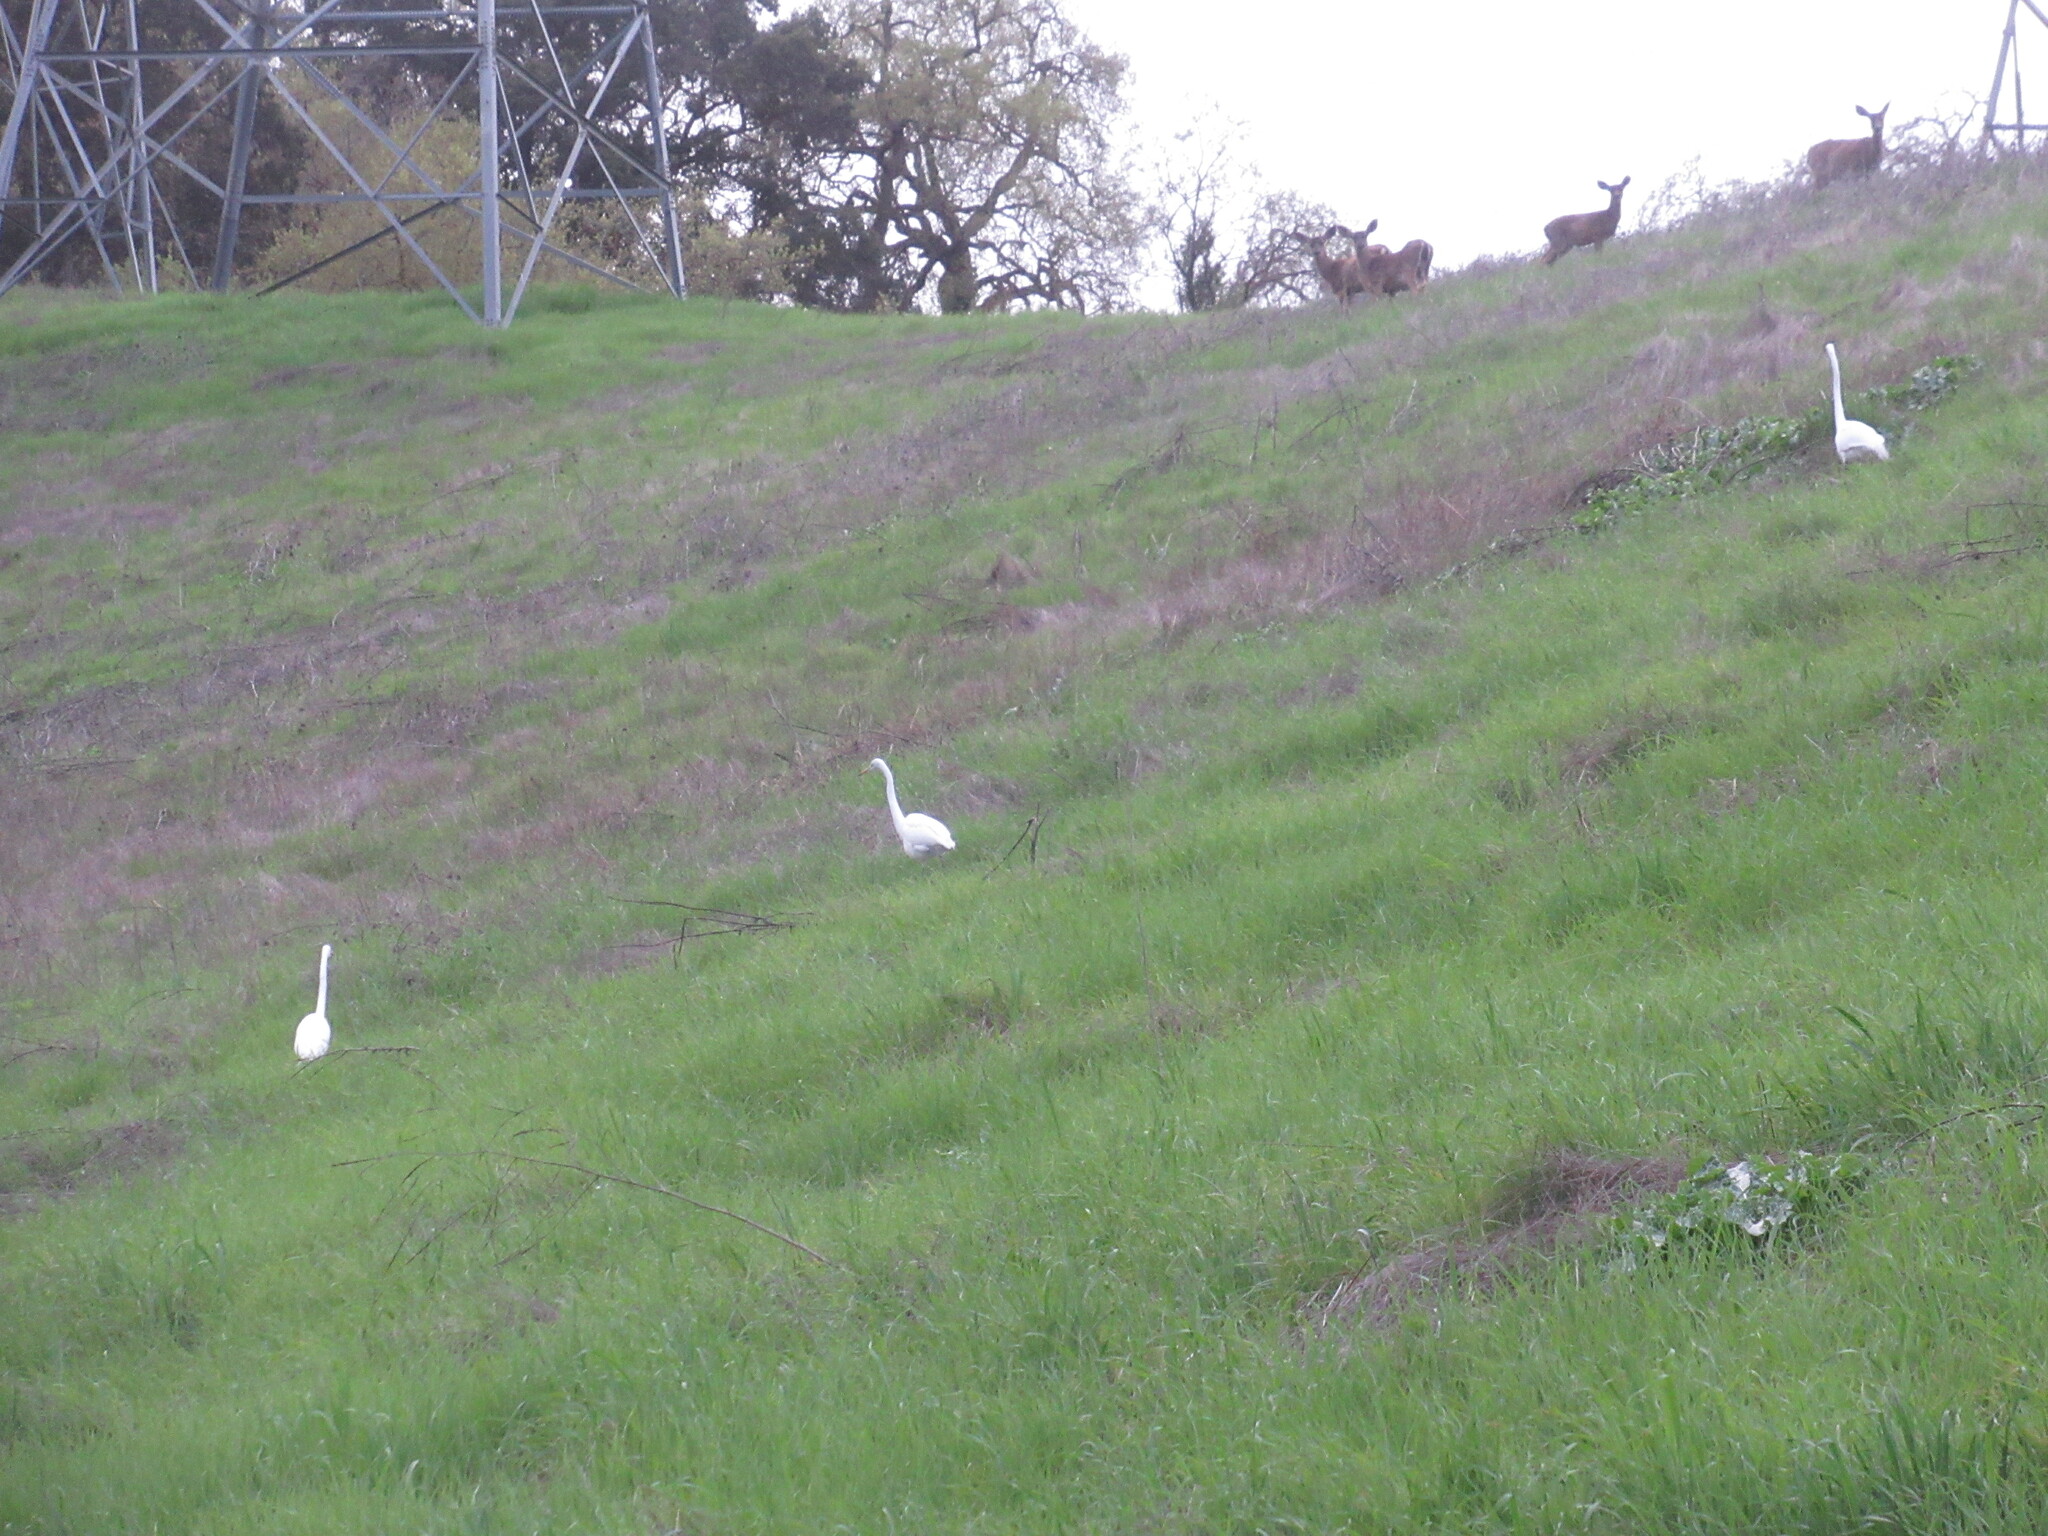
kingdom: Animalia
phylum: Chordata
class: Mammalia
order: Artiodactyla
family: Cervidae
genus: Odocoileus
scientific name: Odocoileus hemionus
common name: Mule deer
